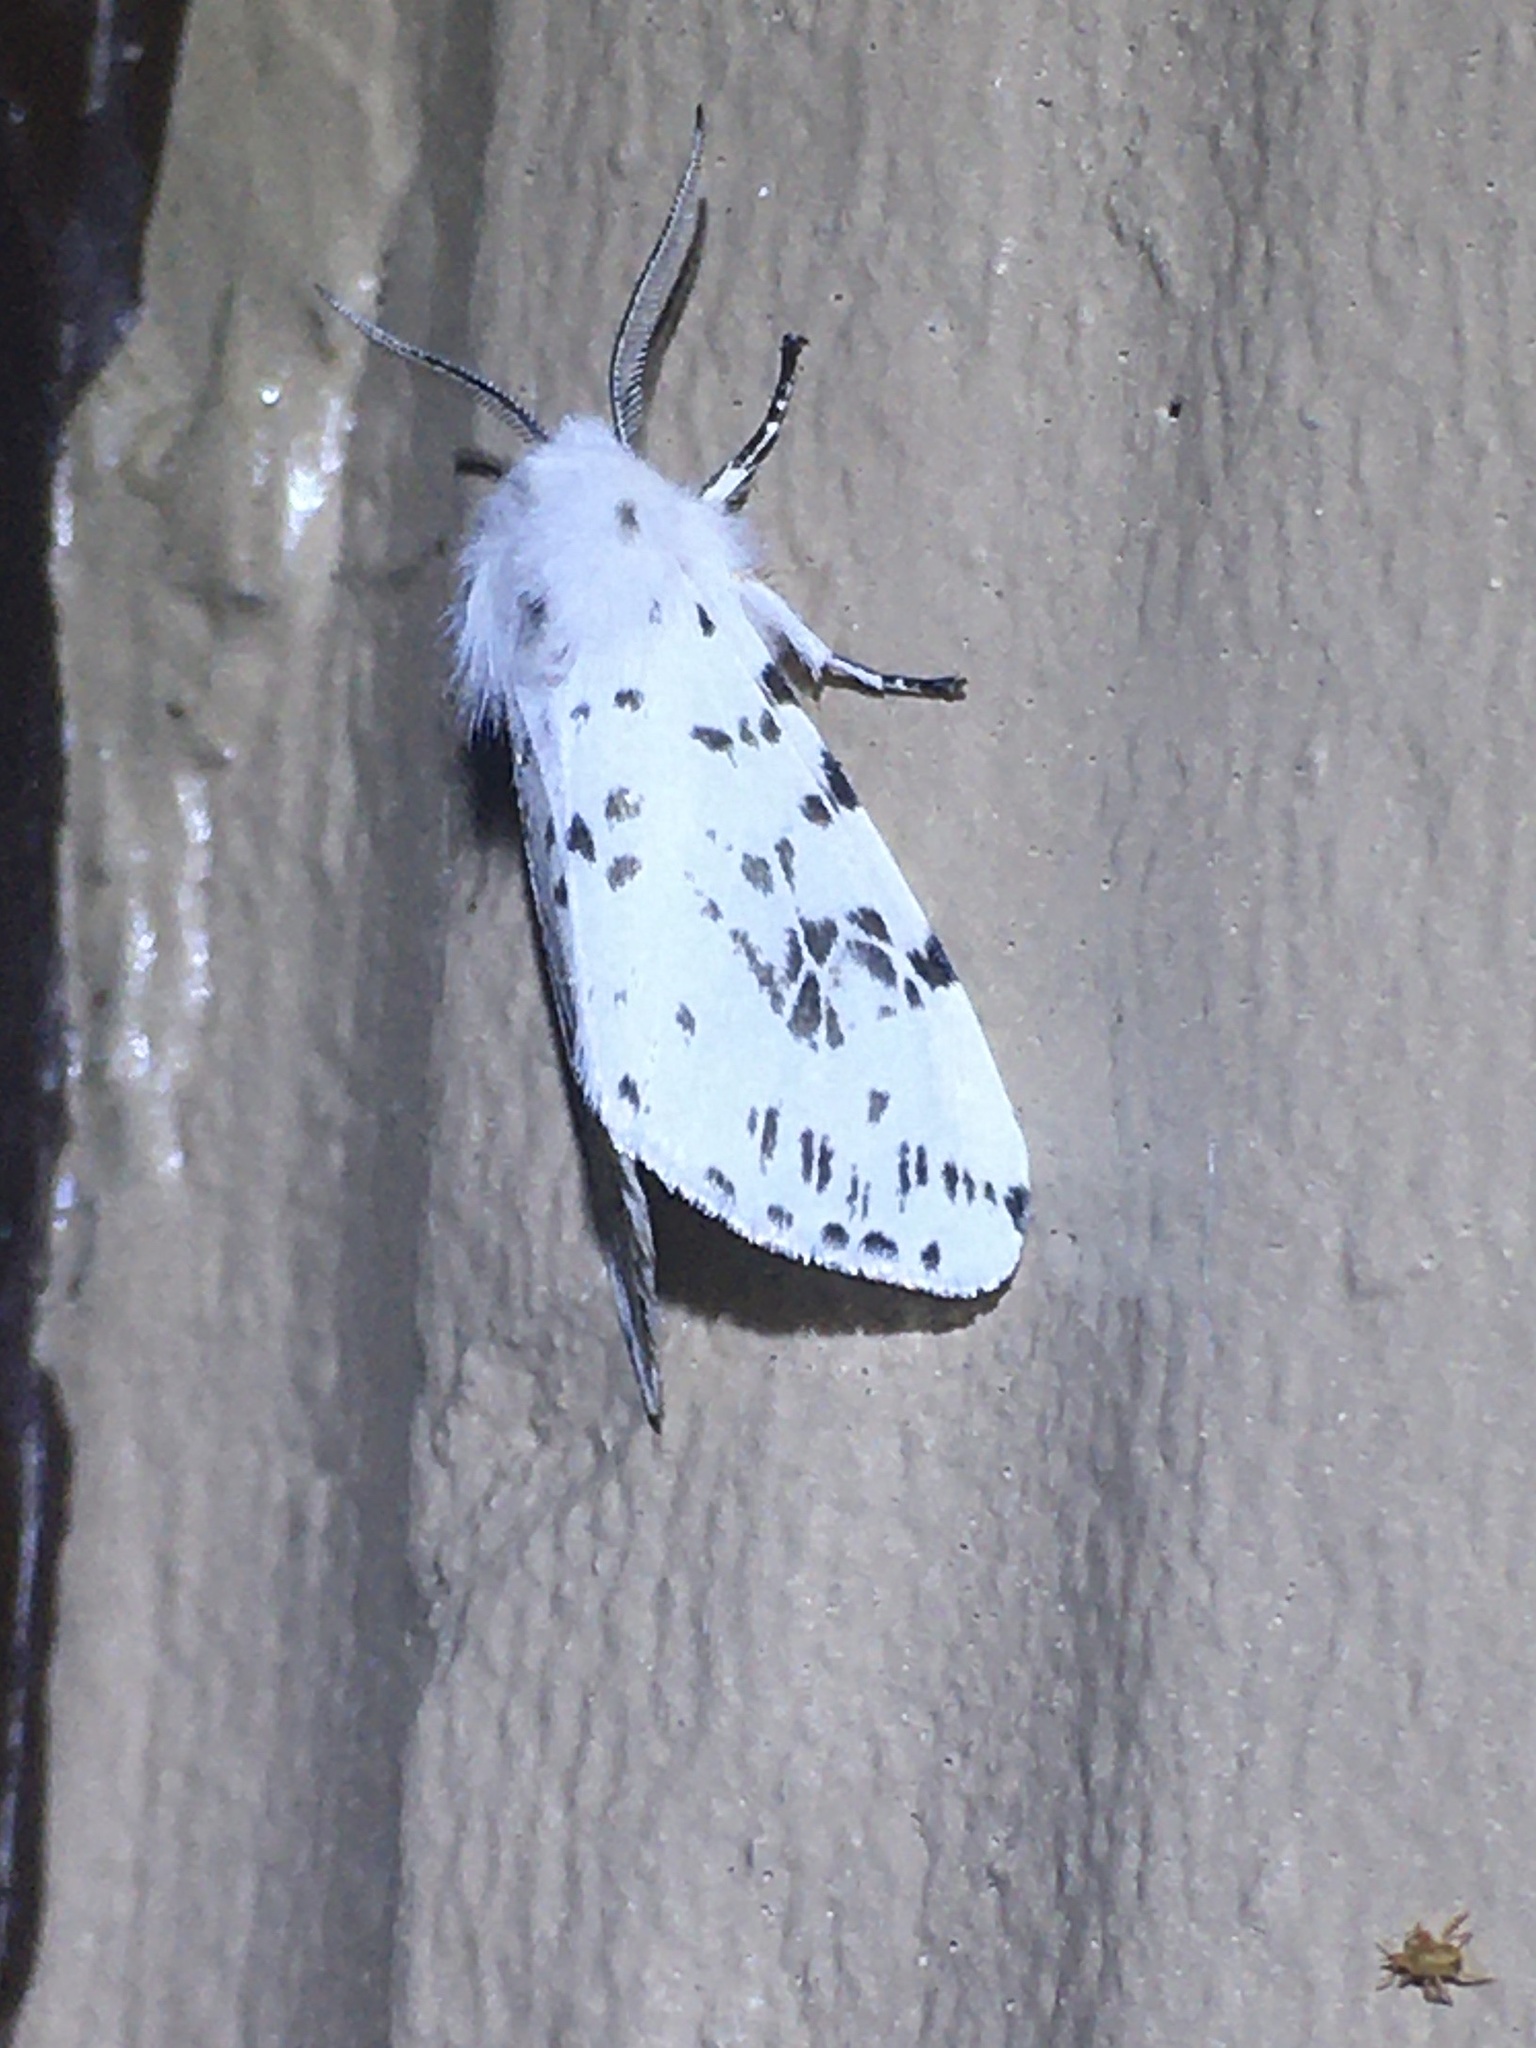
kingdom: Animalia
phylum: Arthropoda
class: Insecta
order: Lepidoptera
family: Erebidae
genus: Hyphantria
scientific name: Hyphantria cunea
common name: American white moth
